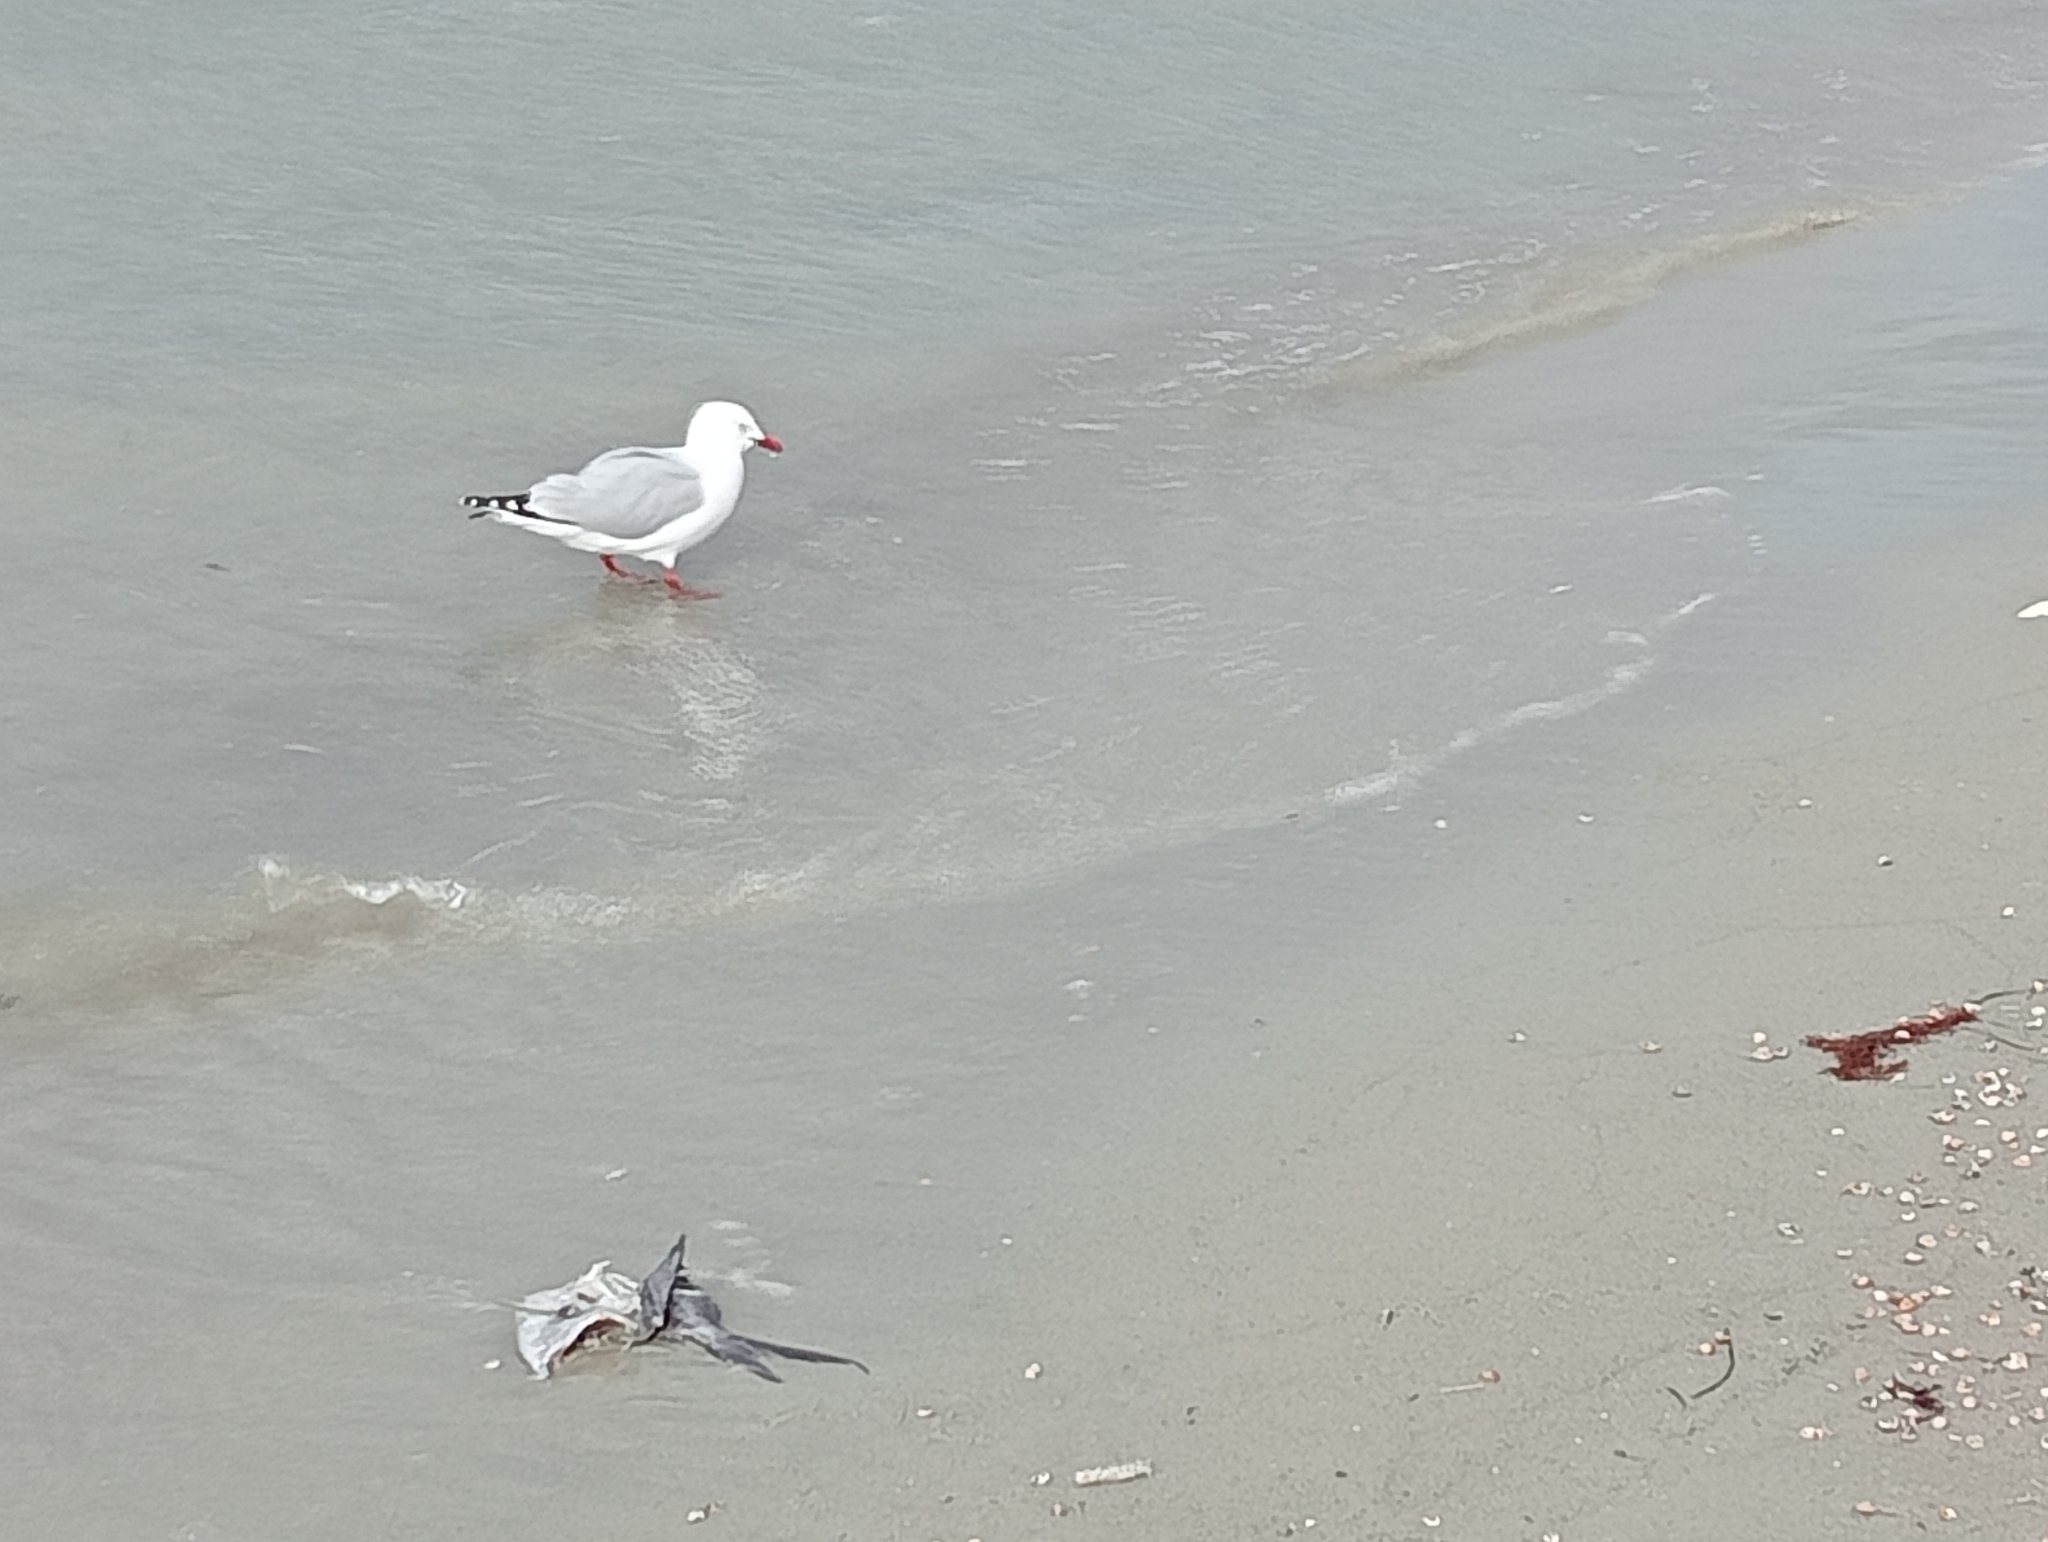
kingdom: Animalia
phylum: Chordata
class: Aves
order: Charadriiformes
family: Laridae
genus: Chroicocephalus
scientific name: Chroicocephalus novaehollandiae
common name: Silver gull
